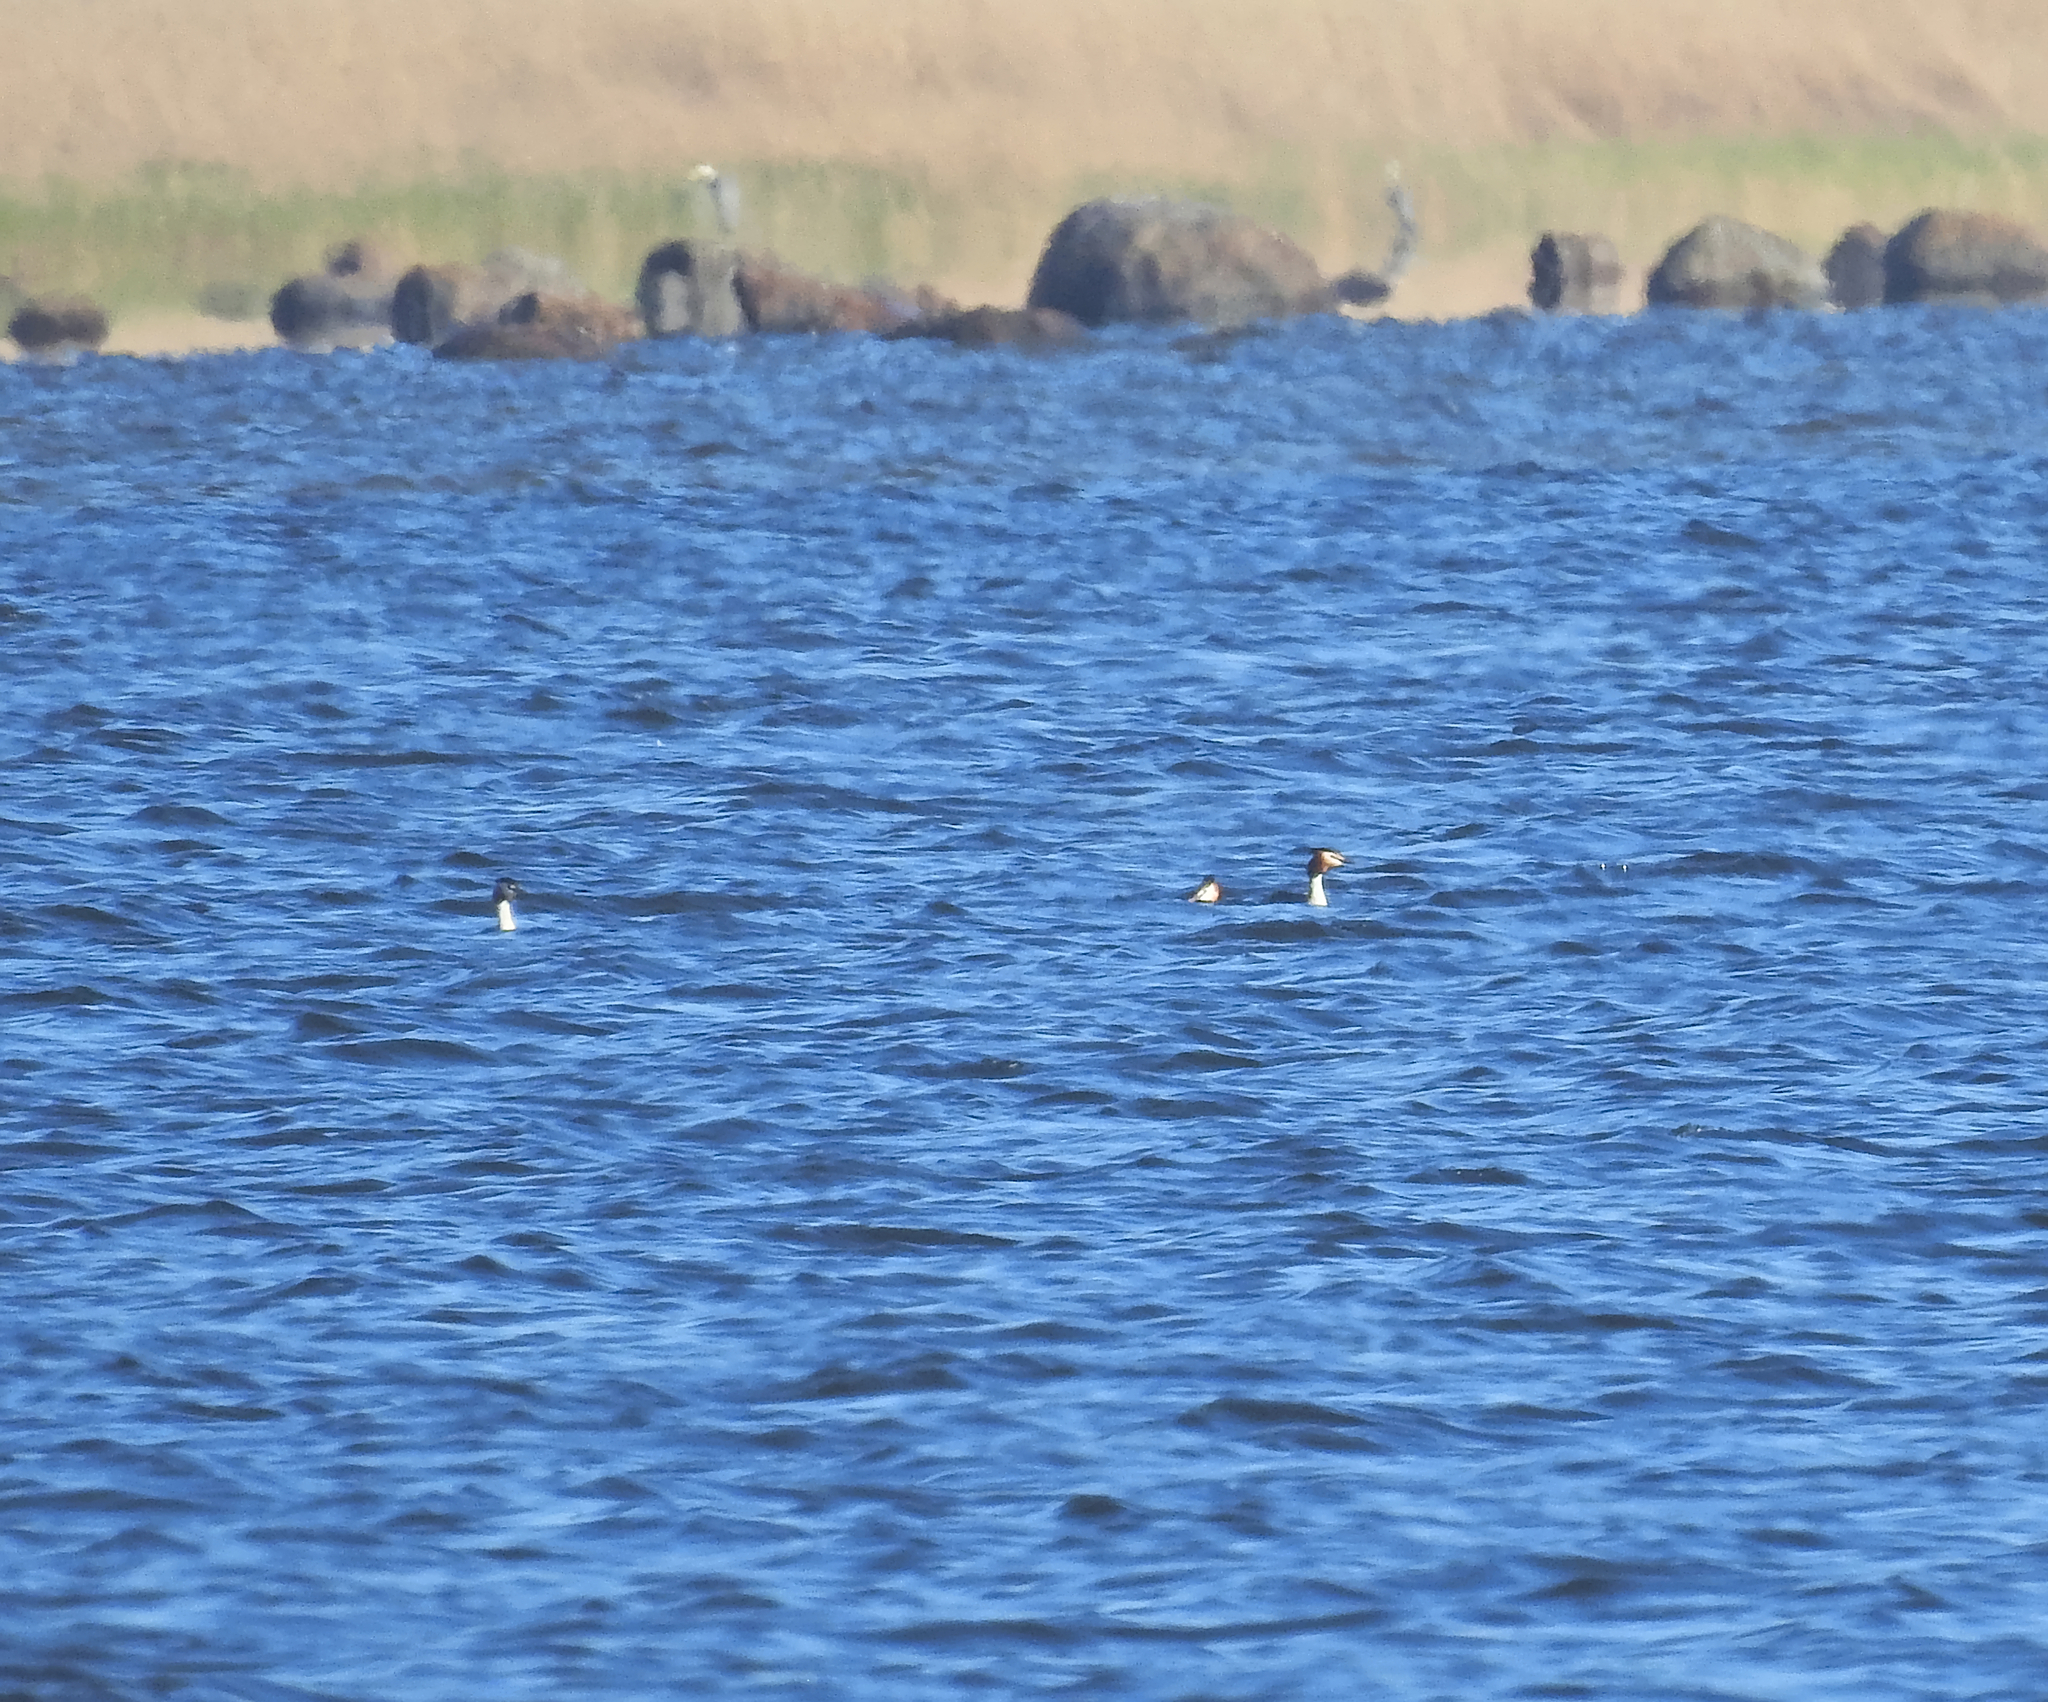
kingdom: Animalia
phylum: Chordata
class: Aves
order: Podicipediformes
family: Podicipedidae
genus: Podiceps
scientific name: Podiceps cristatus
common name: Great crested grebe
